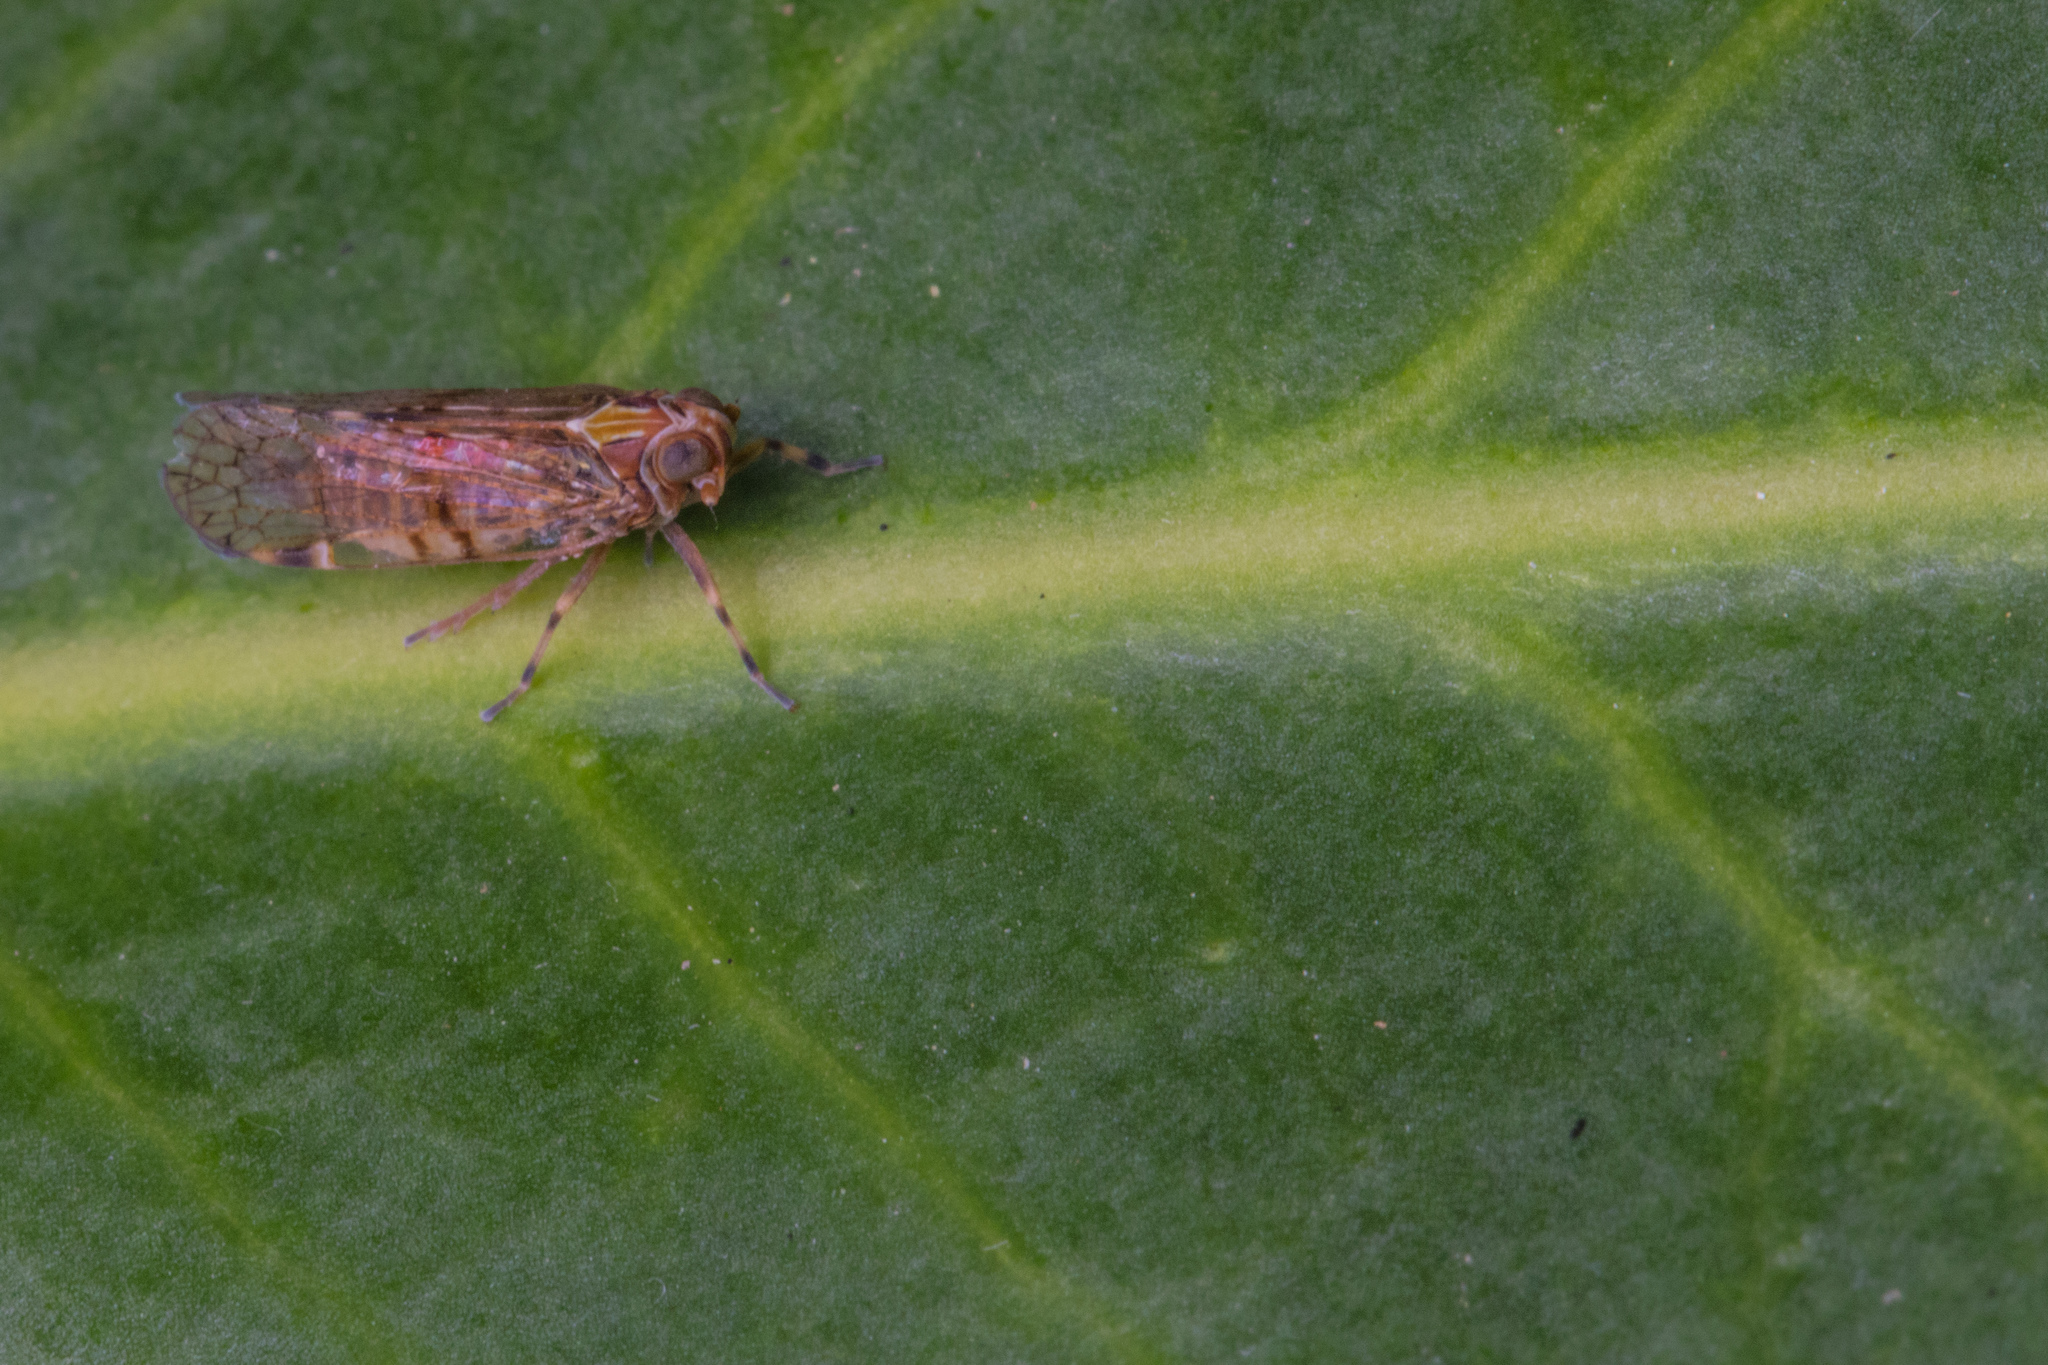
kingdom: Animalia
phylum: Arthropoda
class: Insecta
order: Hemiptera
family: Cixiidae
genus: Koroana
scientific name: Koroana rufifrons
